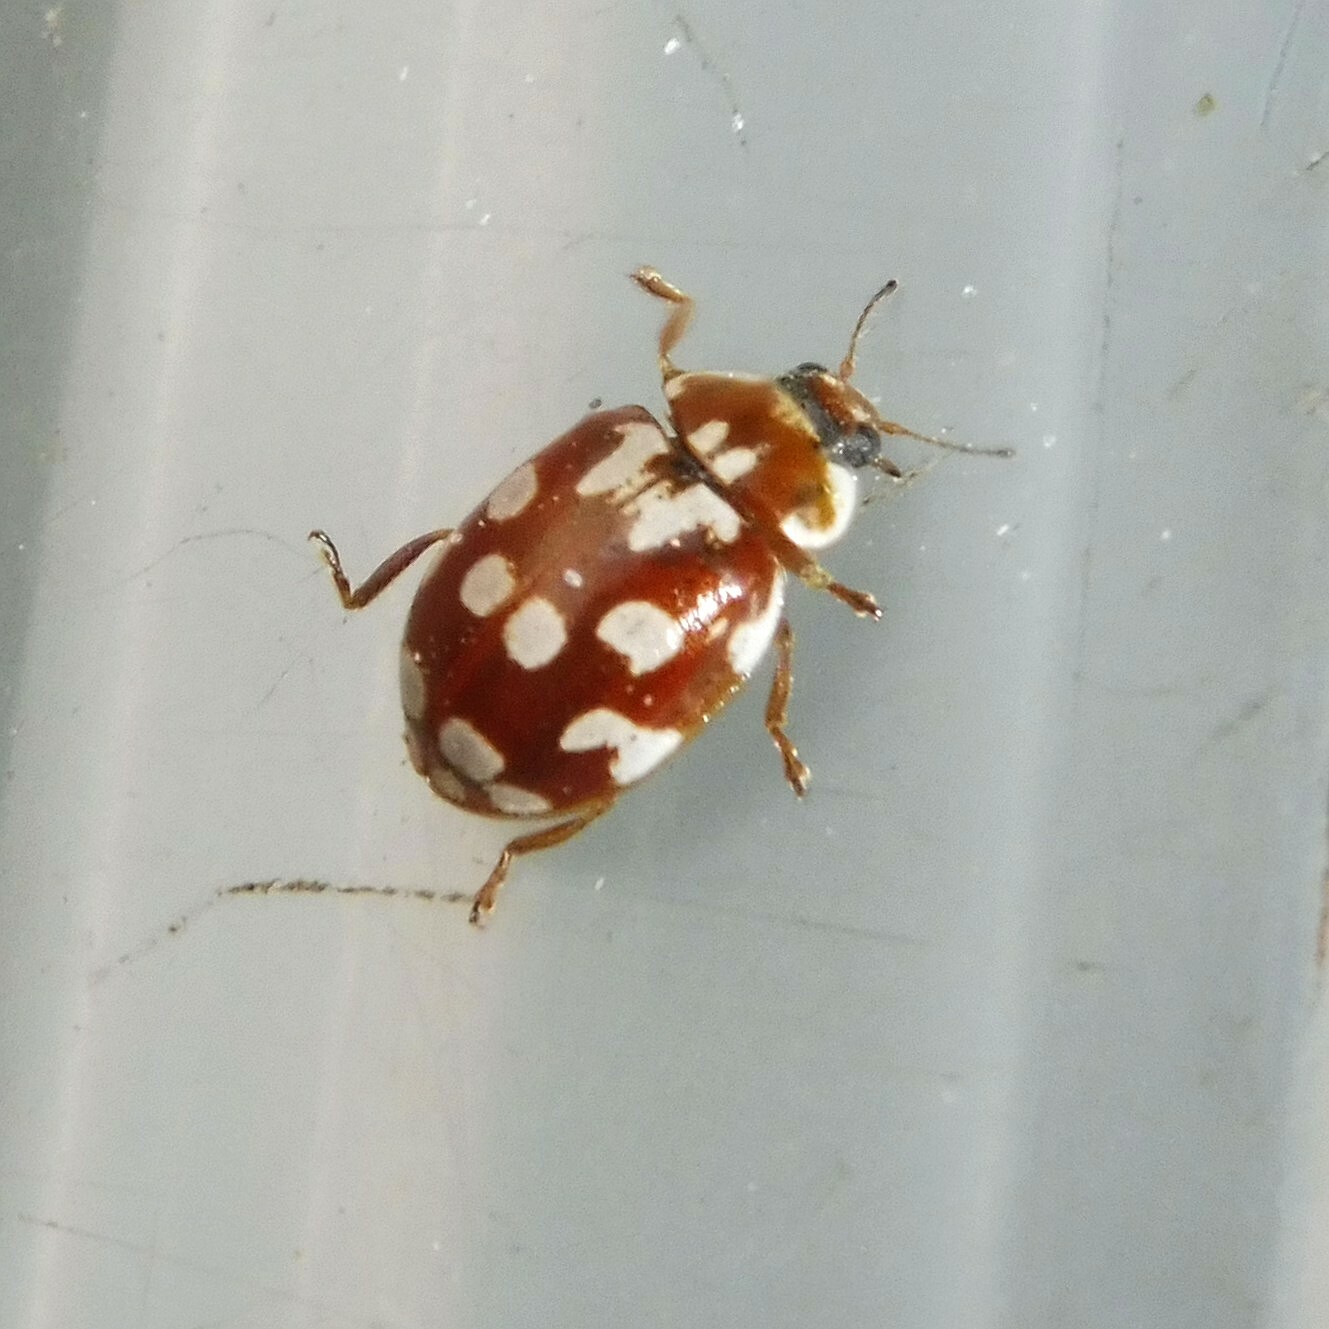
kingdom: Animalia
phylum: Arthropoda
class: Insecta
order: Coleoptera
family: Coccinellidae
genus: Myrrha
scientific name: Myrrha octodecimguttata
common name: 18-spot ladybird
